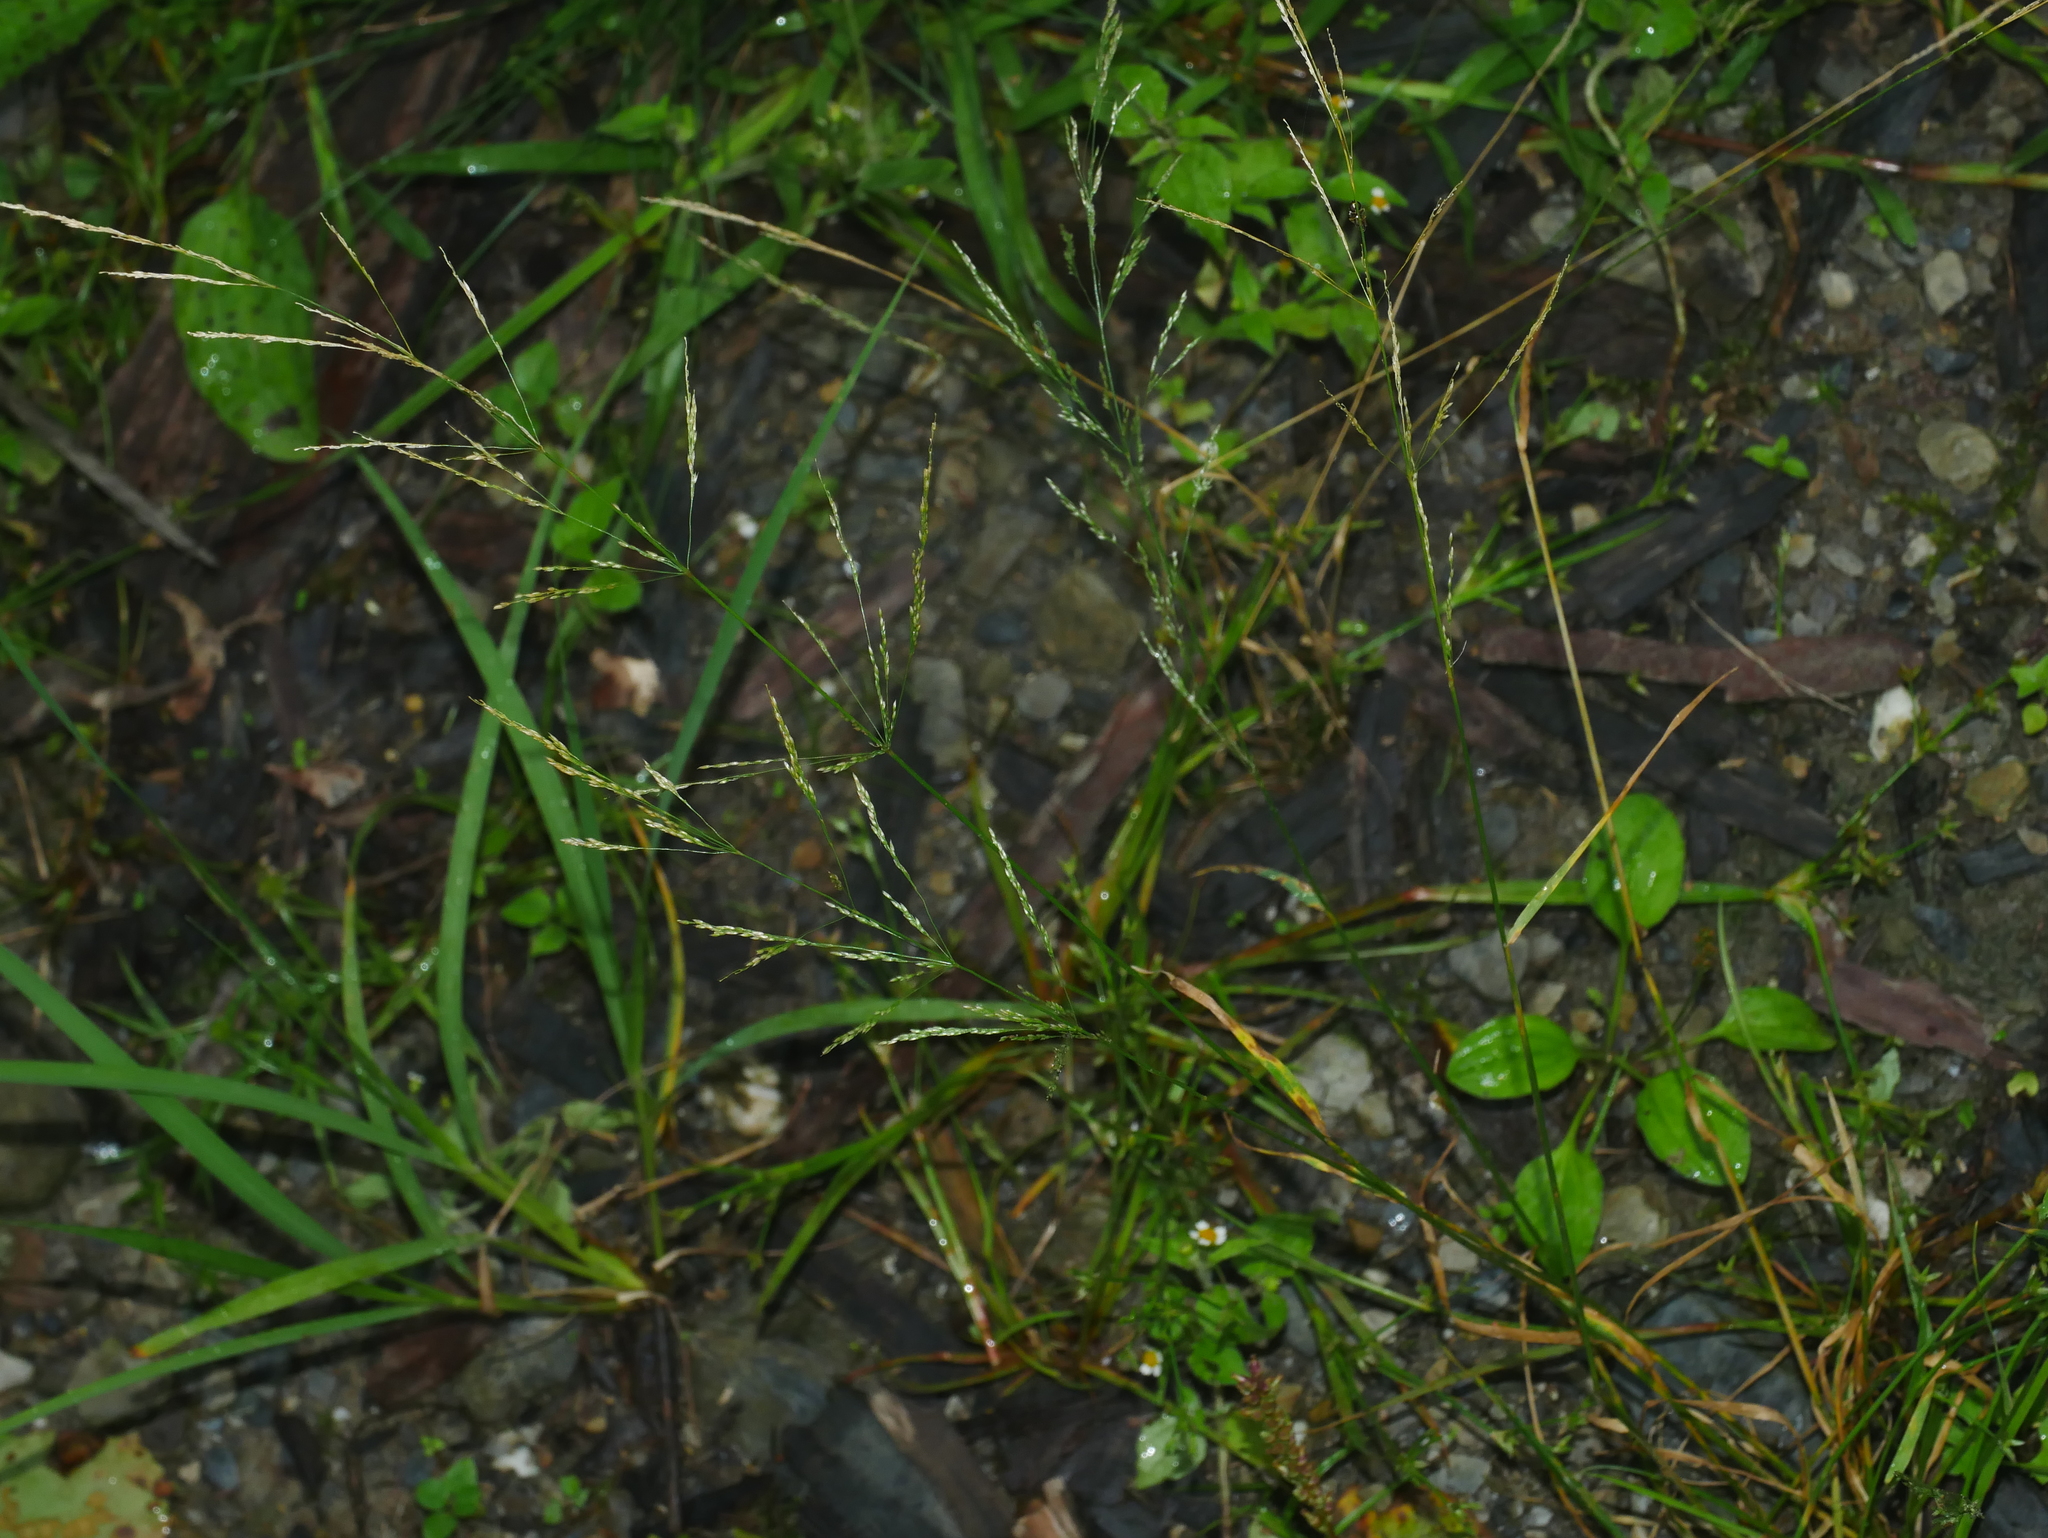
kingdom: Plantae
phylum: Tracheophyta
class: Liliopsida
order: Poales
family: Poaceae
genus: Agrostis
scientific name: Agrostis clavata
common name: Clavate bent
